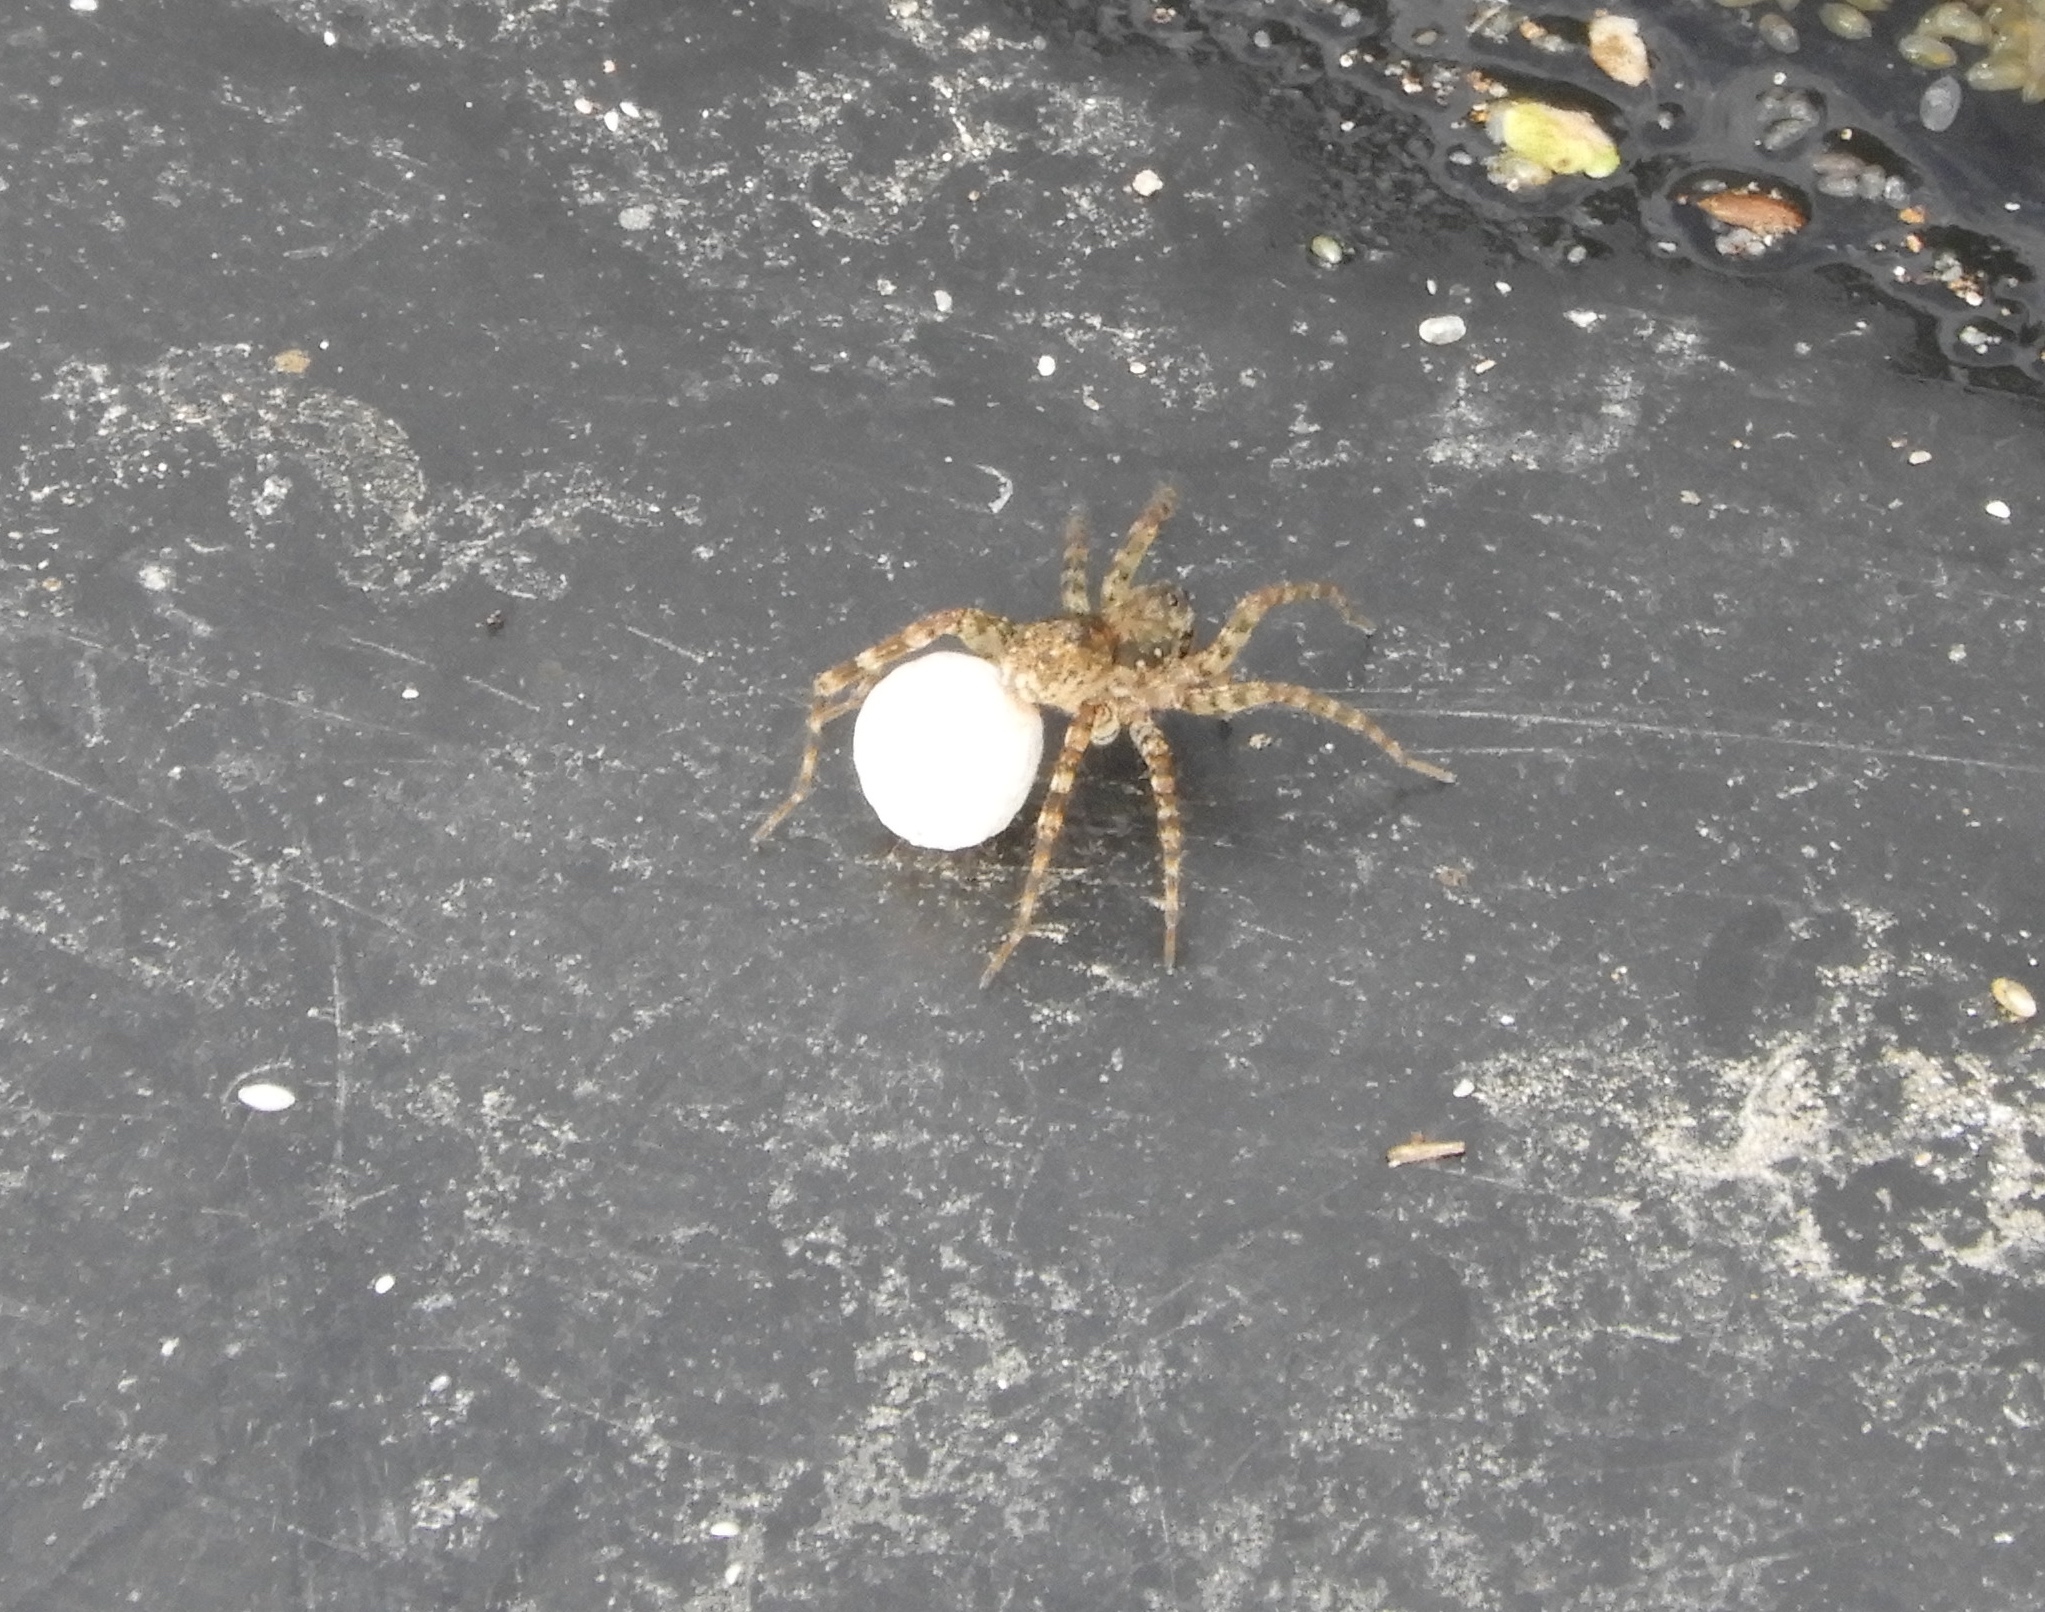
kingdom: Animalia
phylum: Arthropoda
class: Arachnida
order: Araneae
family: Lycosidae
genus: Arctosa
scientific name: Arctosa
